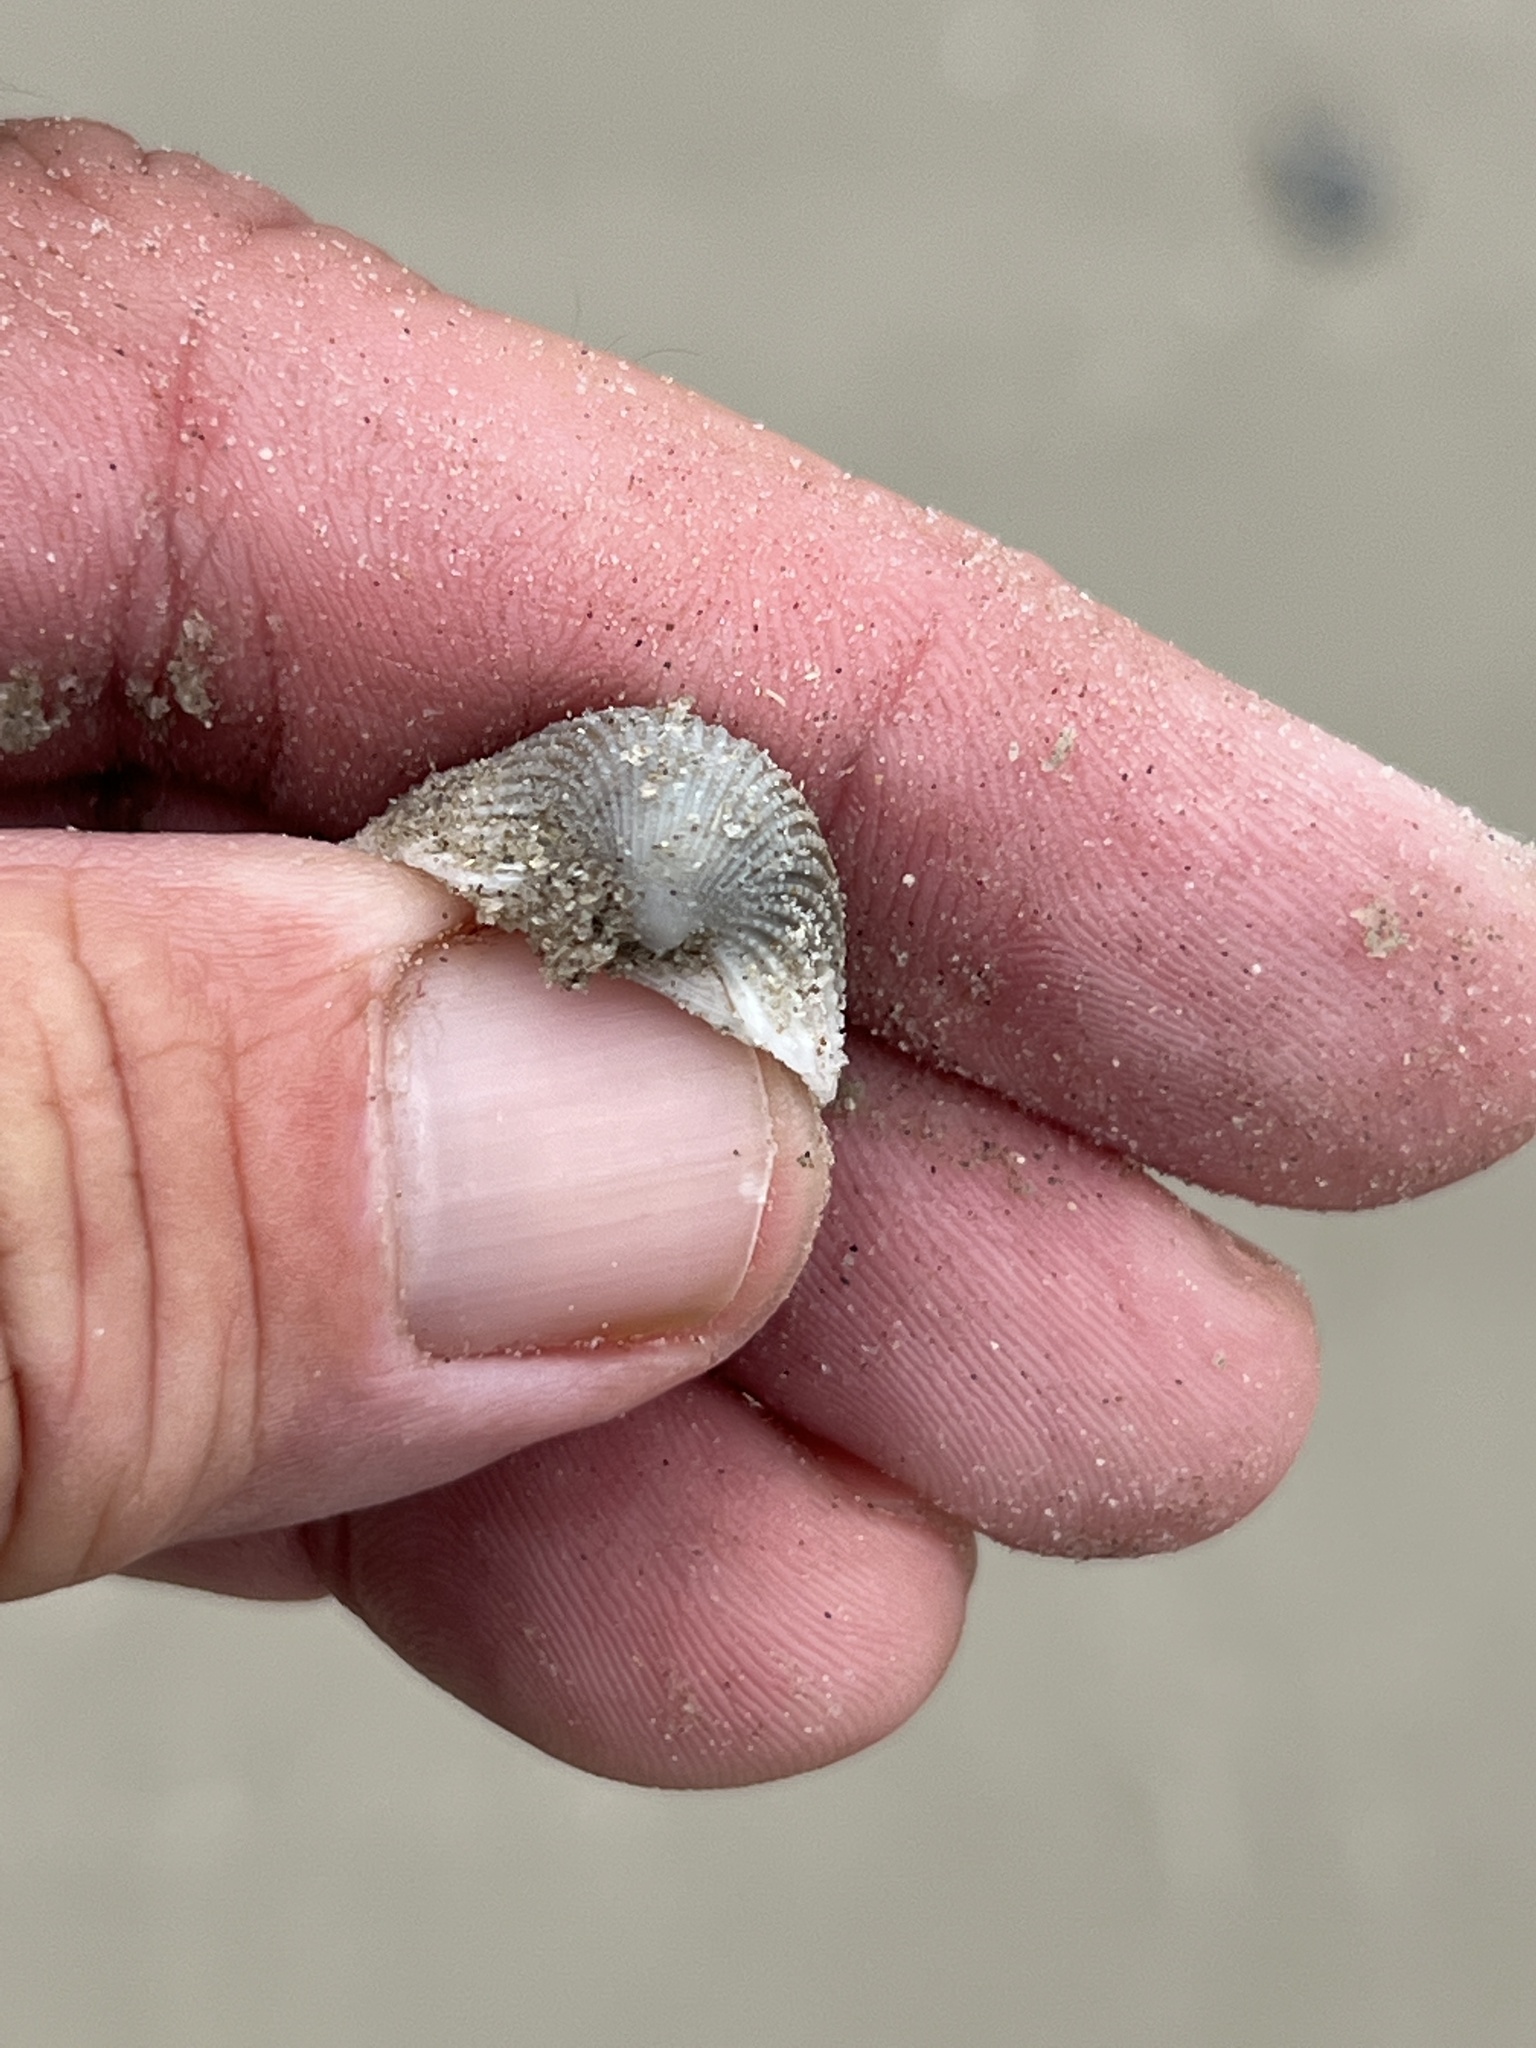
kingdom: Animalia
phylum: Mollusca
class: Bivalvia
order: Arcida
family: Arcidae
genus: Anadara
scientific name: Anadara chemnitzii
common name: Chemnitz's triangular ark
